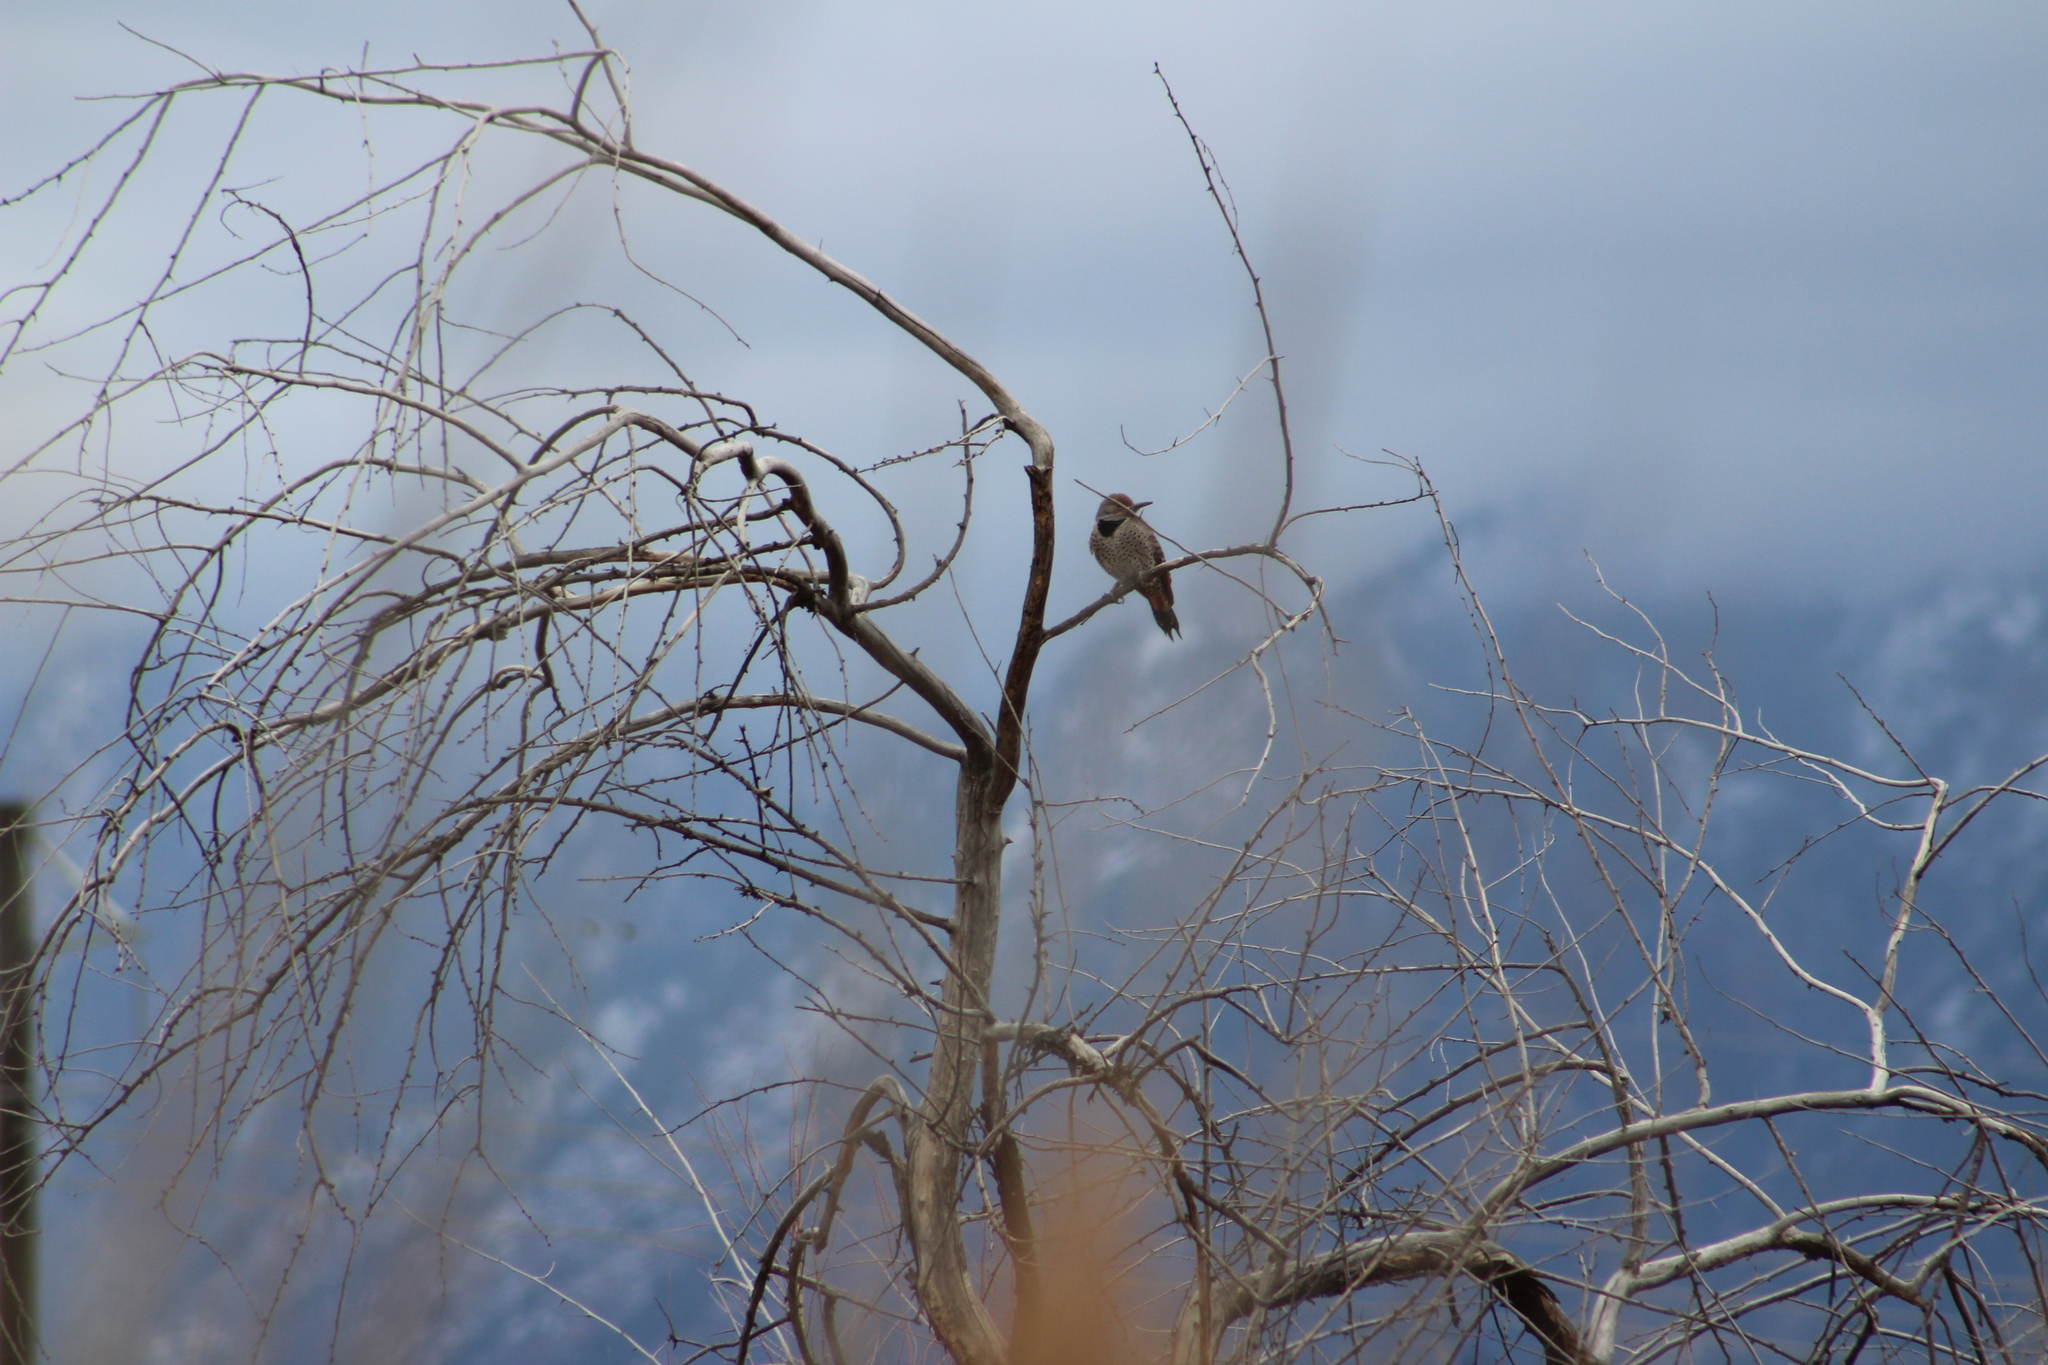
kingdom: Animalia
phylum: Chordata
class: Aves
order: Piciformes
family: Picidae
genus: Colaptes
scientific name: Colaptes auratus
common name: Northern flicker
